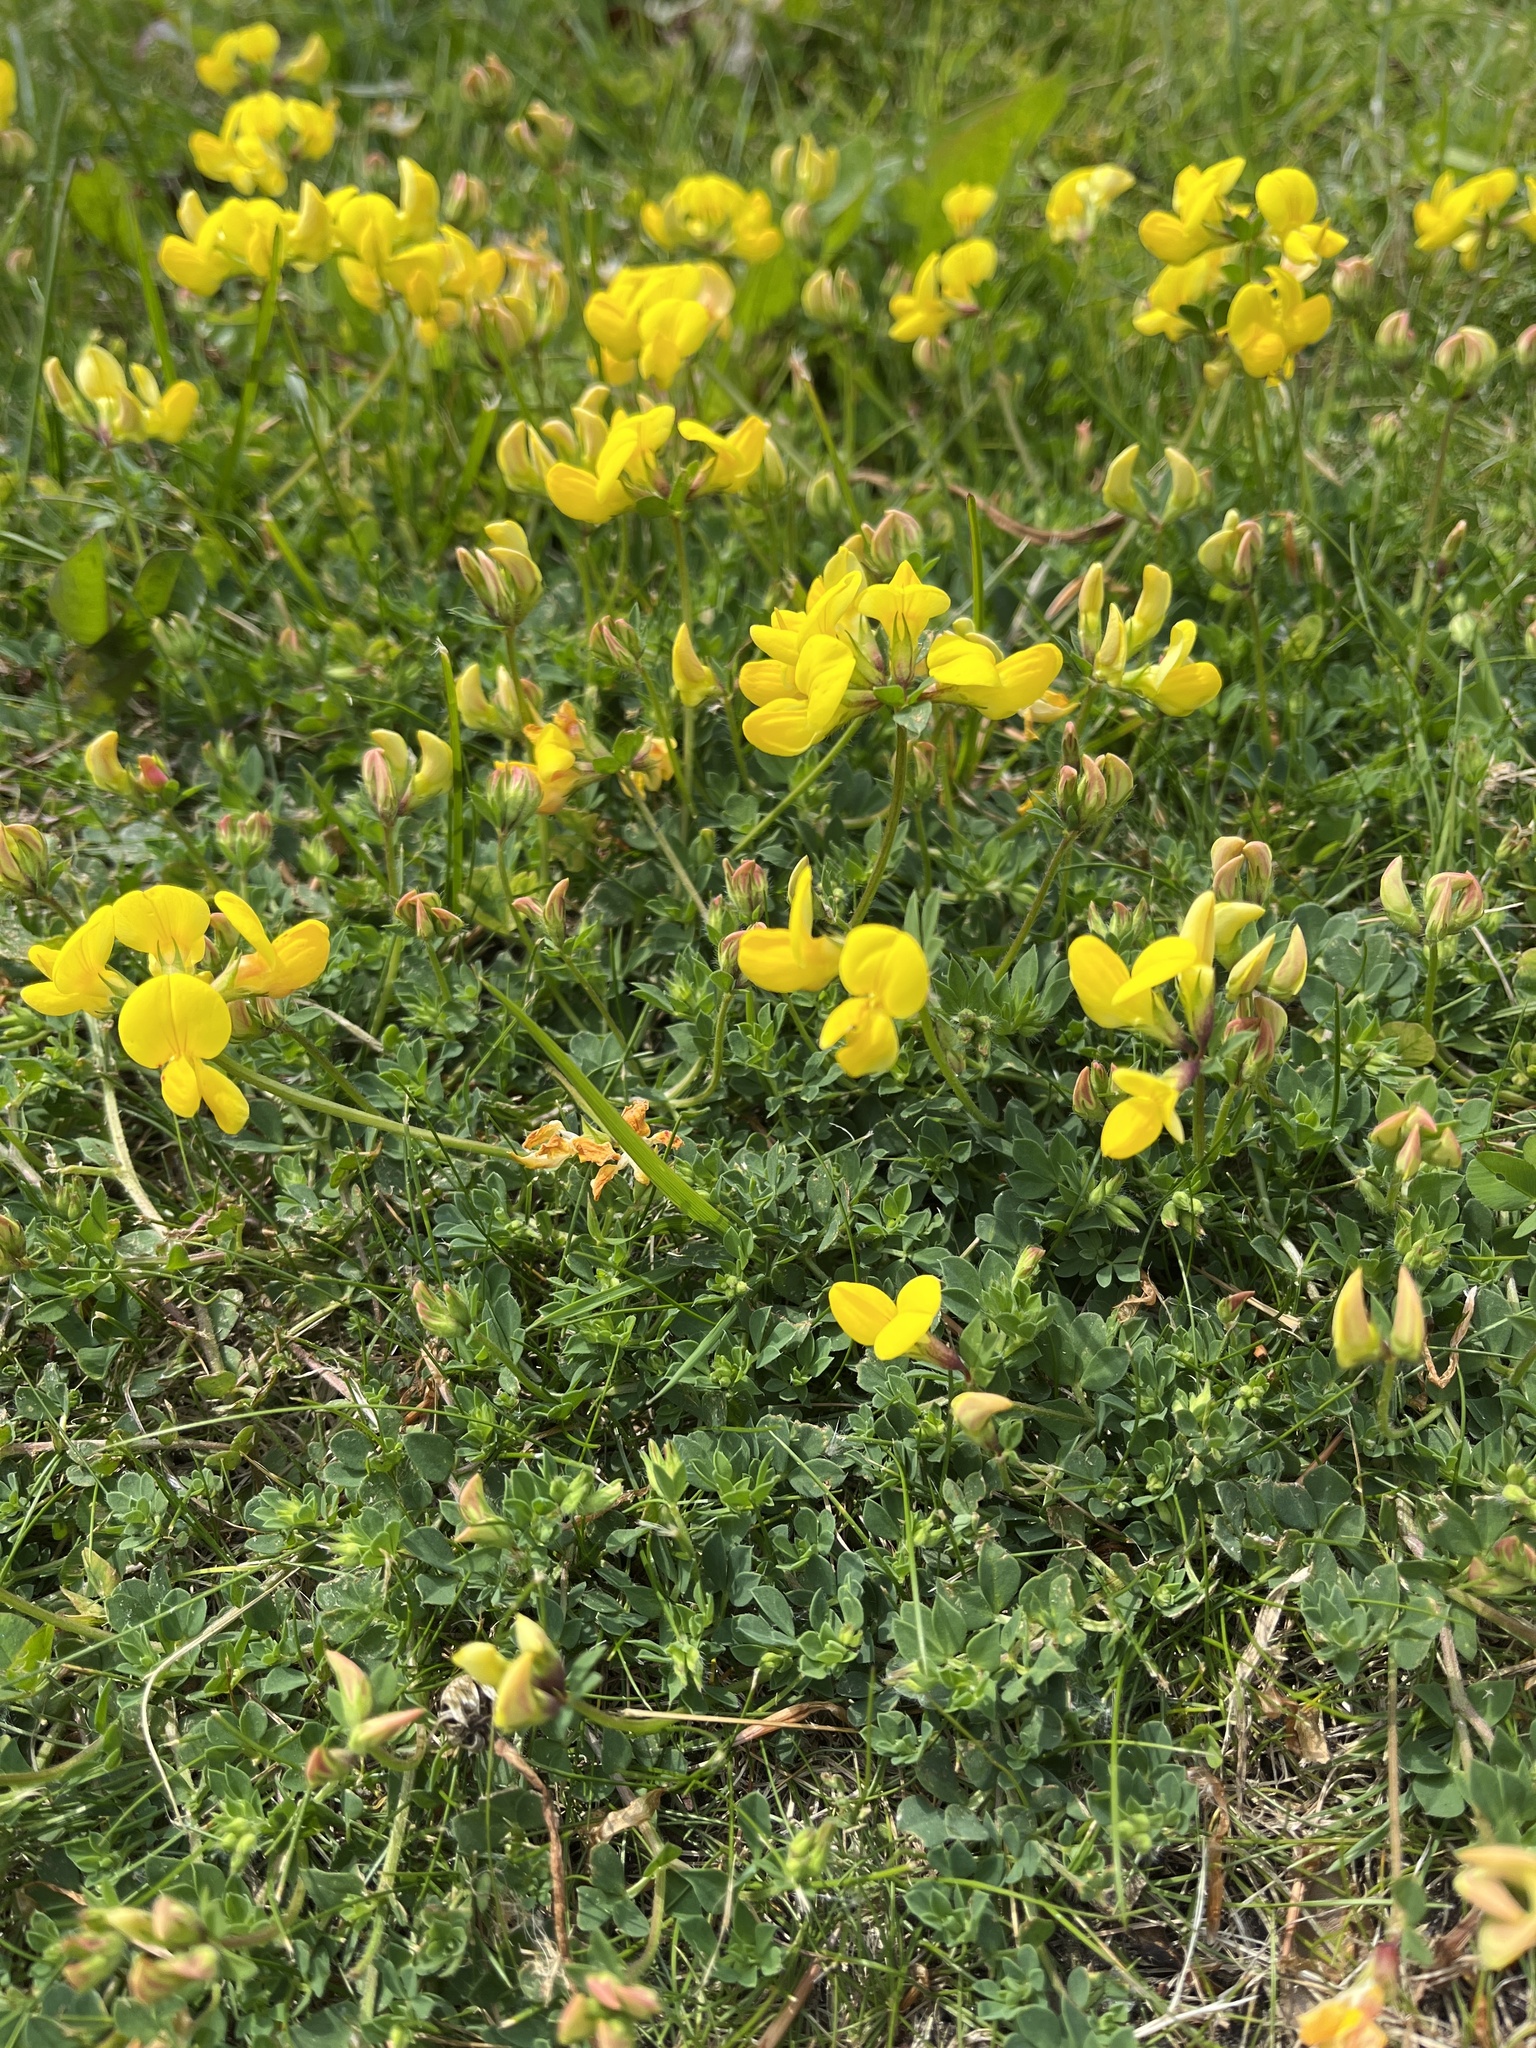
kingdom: Plantae
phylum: Tracheophyta
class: Magnoliopsida
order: Fabales
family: Fabaceae
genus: Lotus
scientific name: Lotus corniculatus
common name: Common bird's-foot-trefoil
